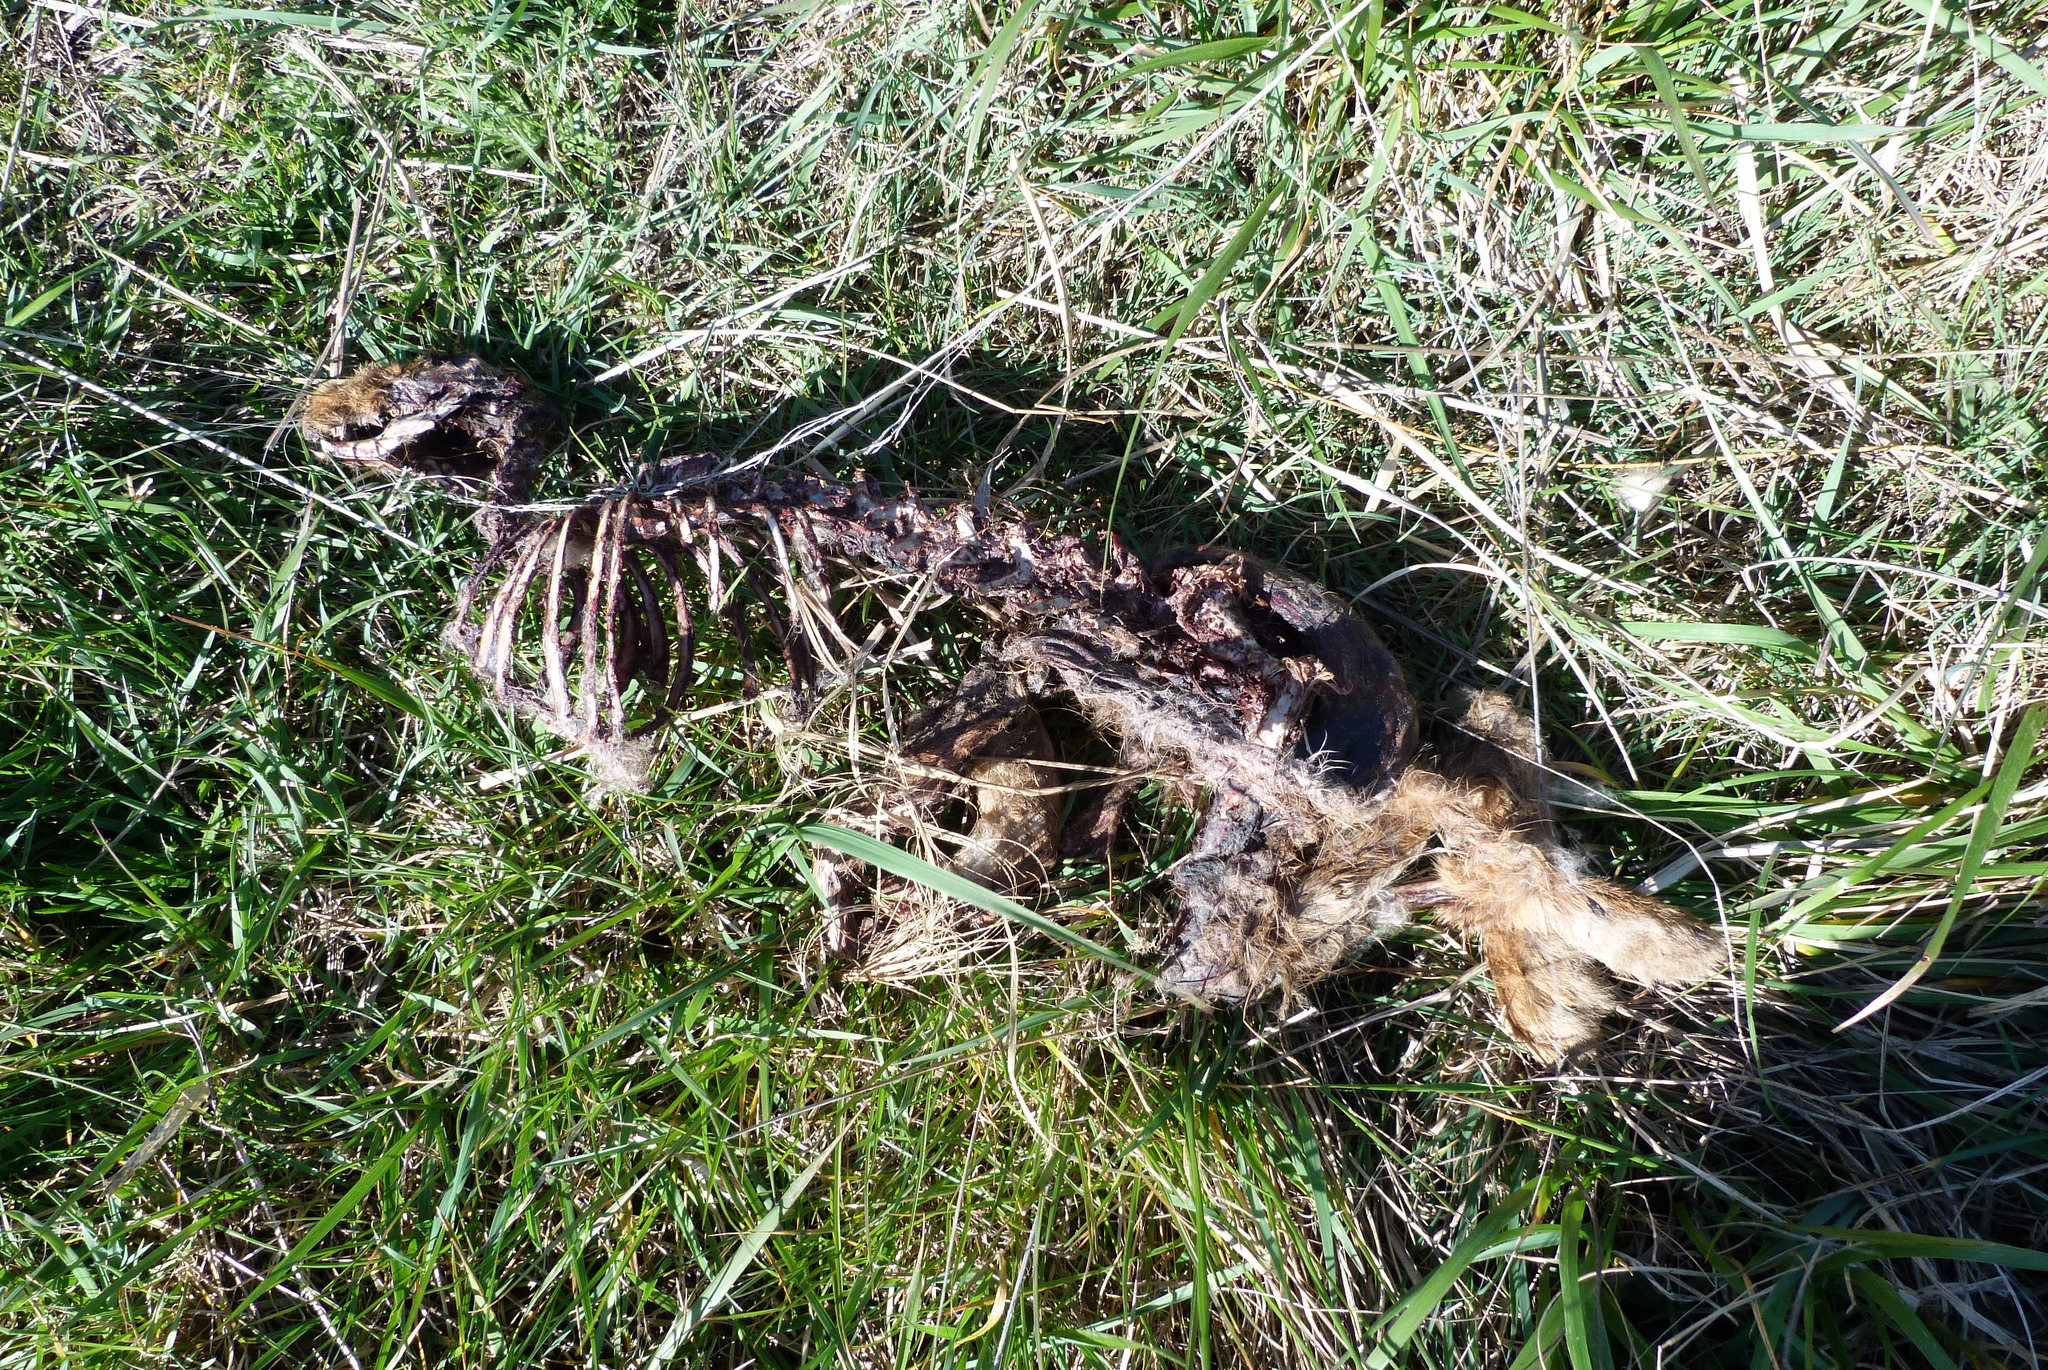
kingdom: Animalia
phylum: Chordata
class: Mammalia
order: Lagomorpha
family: Leporidae
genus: Lepus
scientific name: Lepus europaeus
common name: European hare
